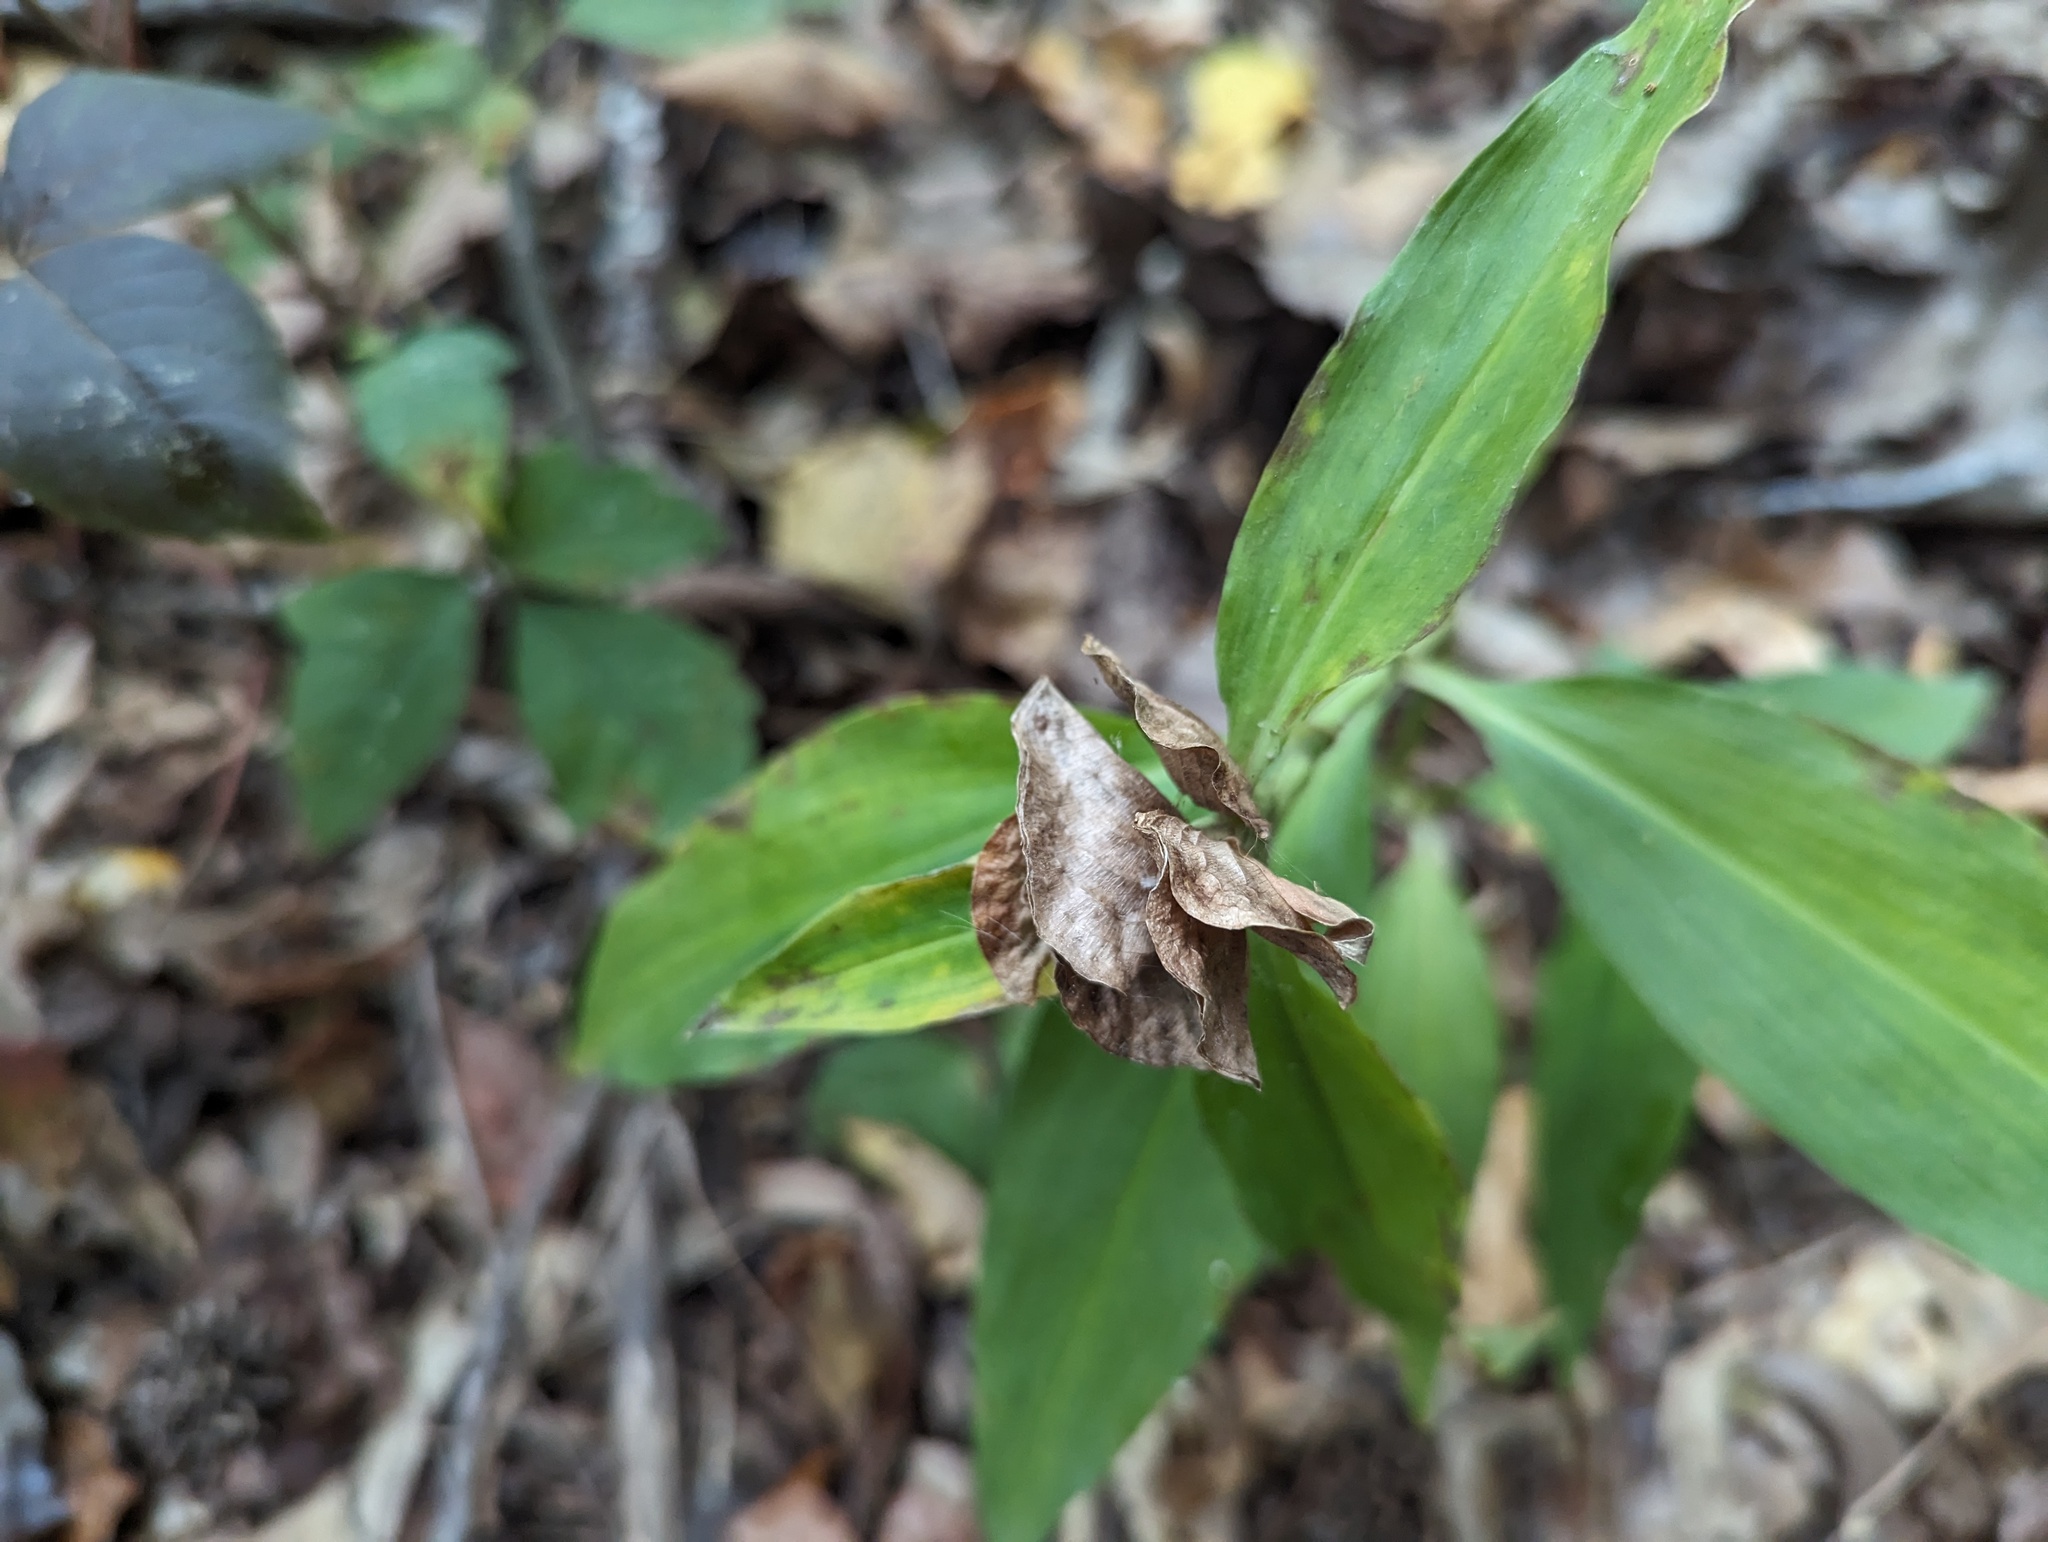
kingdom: Plantae
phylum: Tracheophyta
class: Liliopsida
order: Commelinales
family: Commelinaceae
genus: Commelina
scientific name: Commelina virginica
